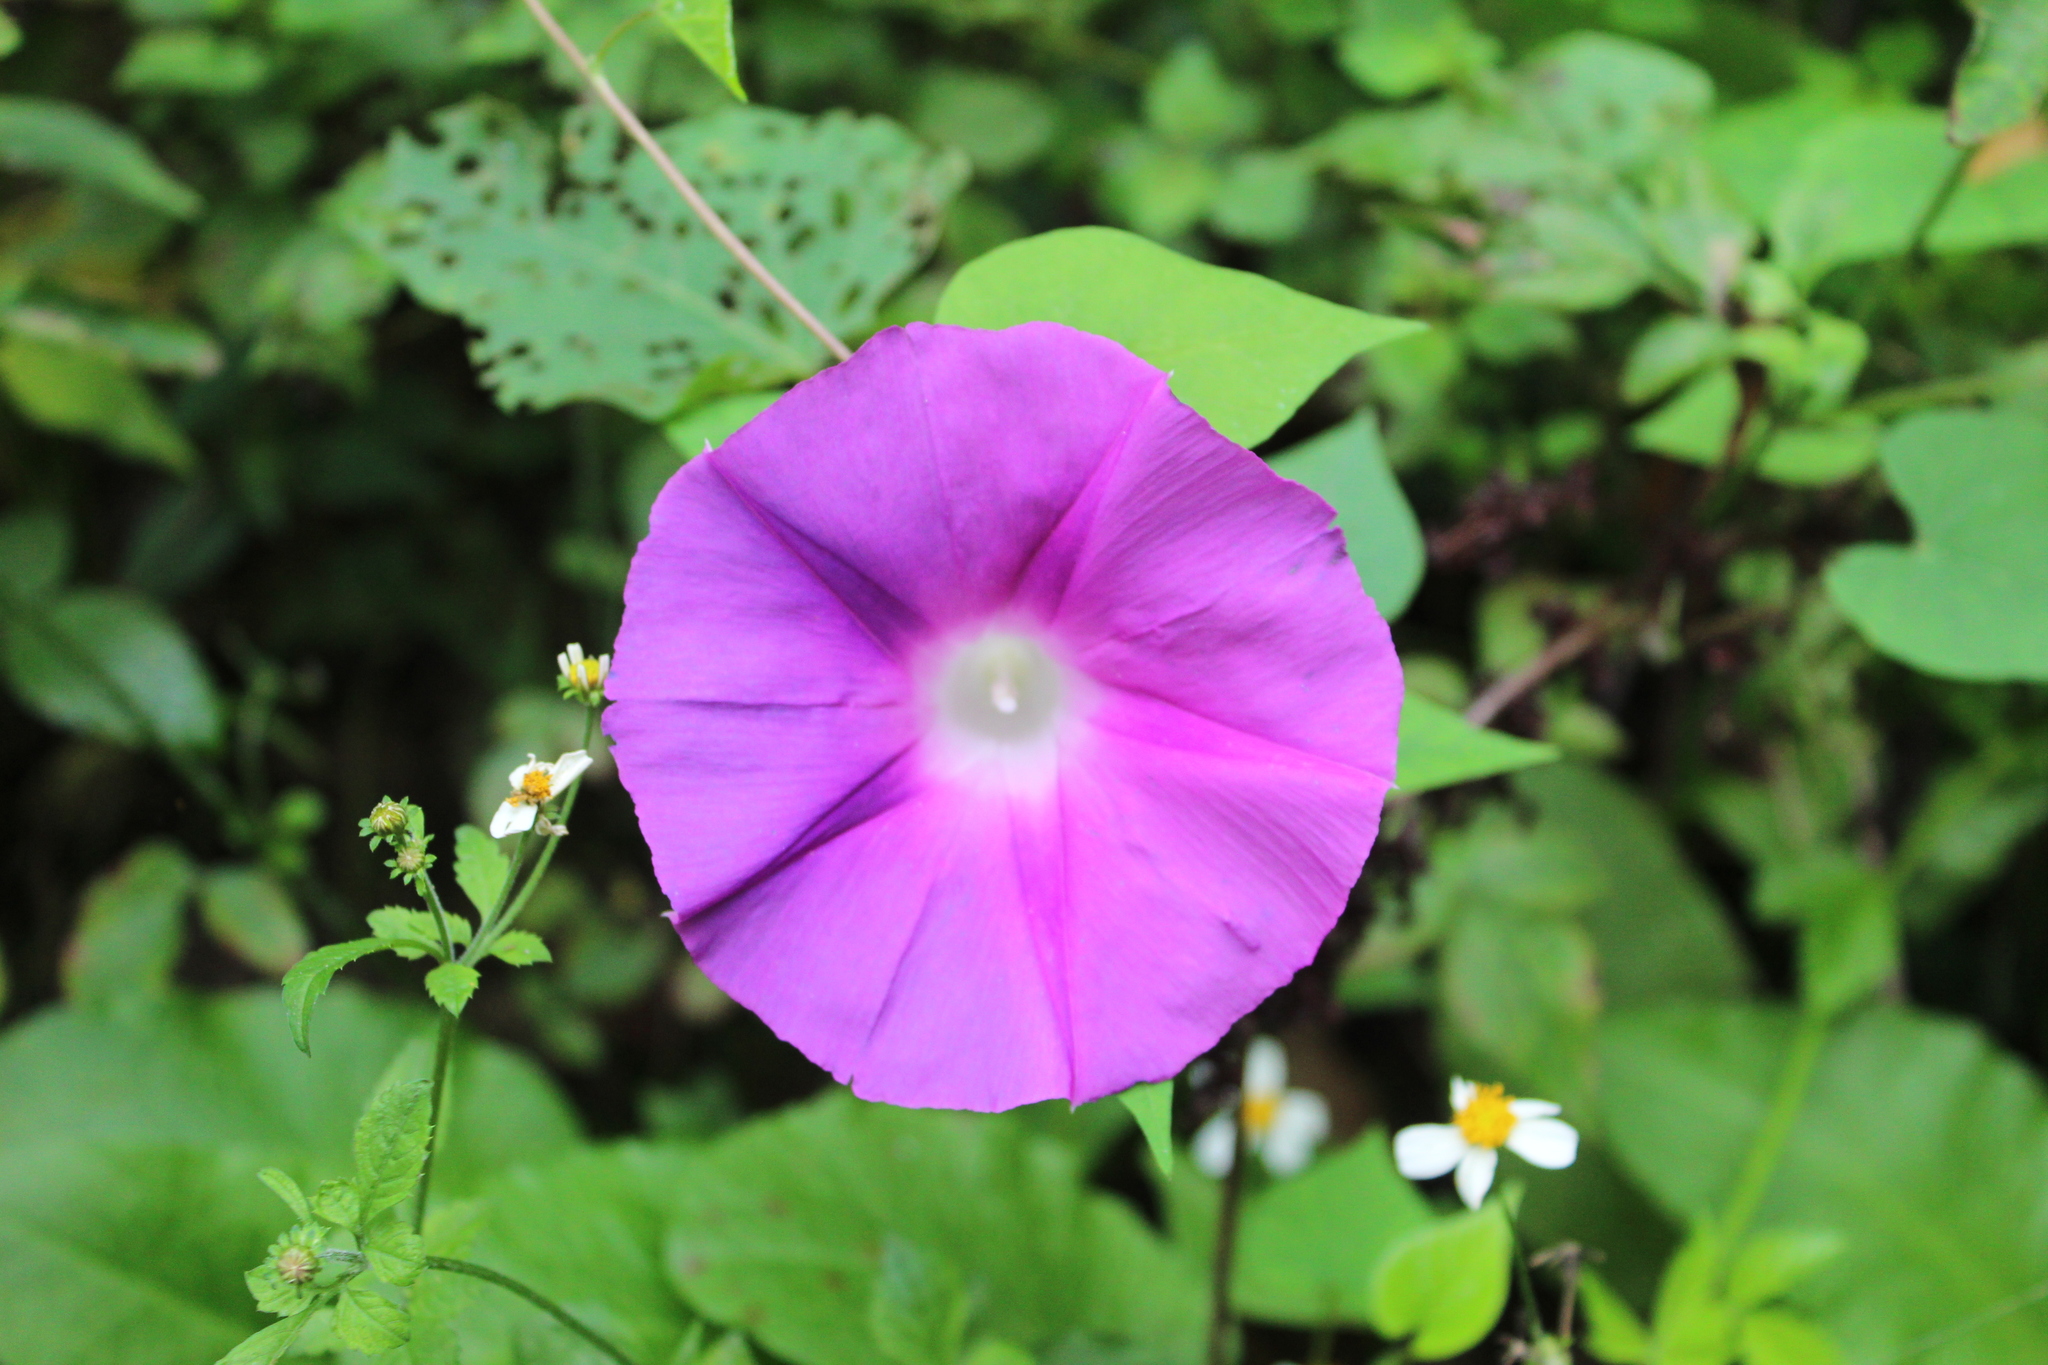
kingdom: Plantae
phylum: Tracheophyta
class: Magnoliopsida
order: Solanales
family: Convolvulaceae
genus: Ipomoea
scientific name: Ipomoea cordatotriloba
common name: Cotton morning glory
